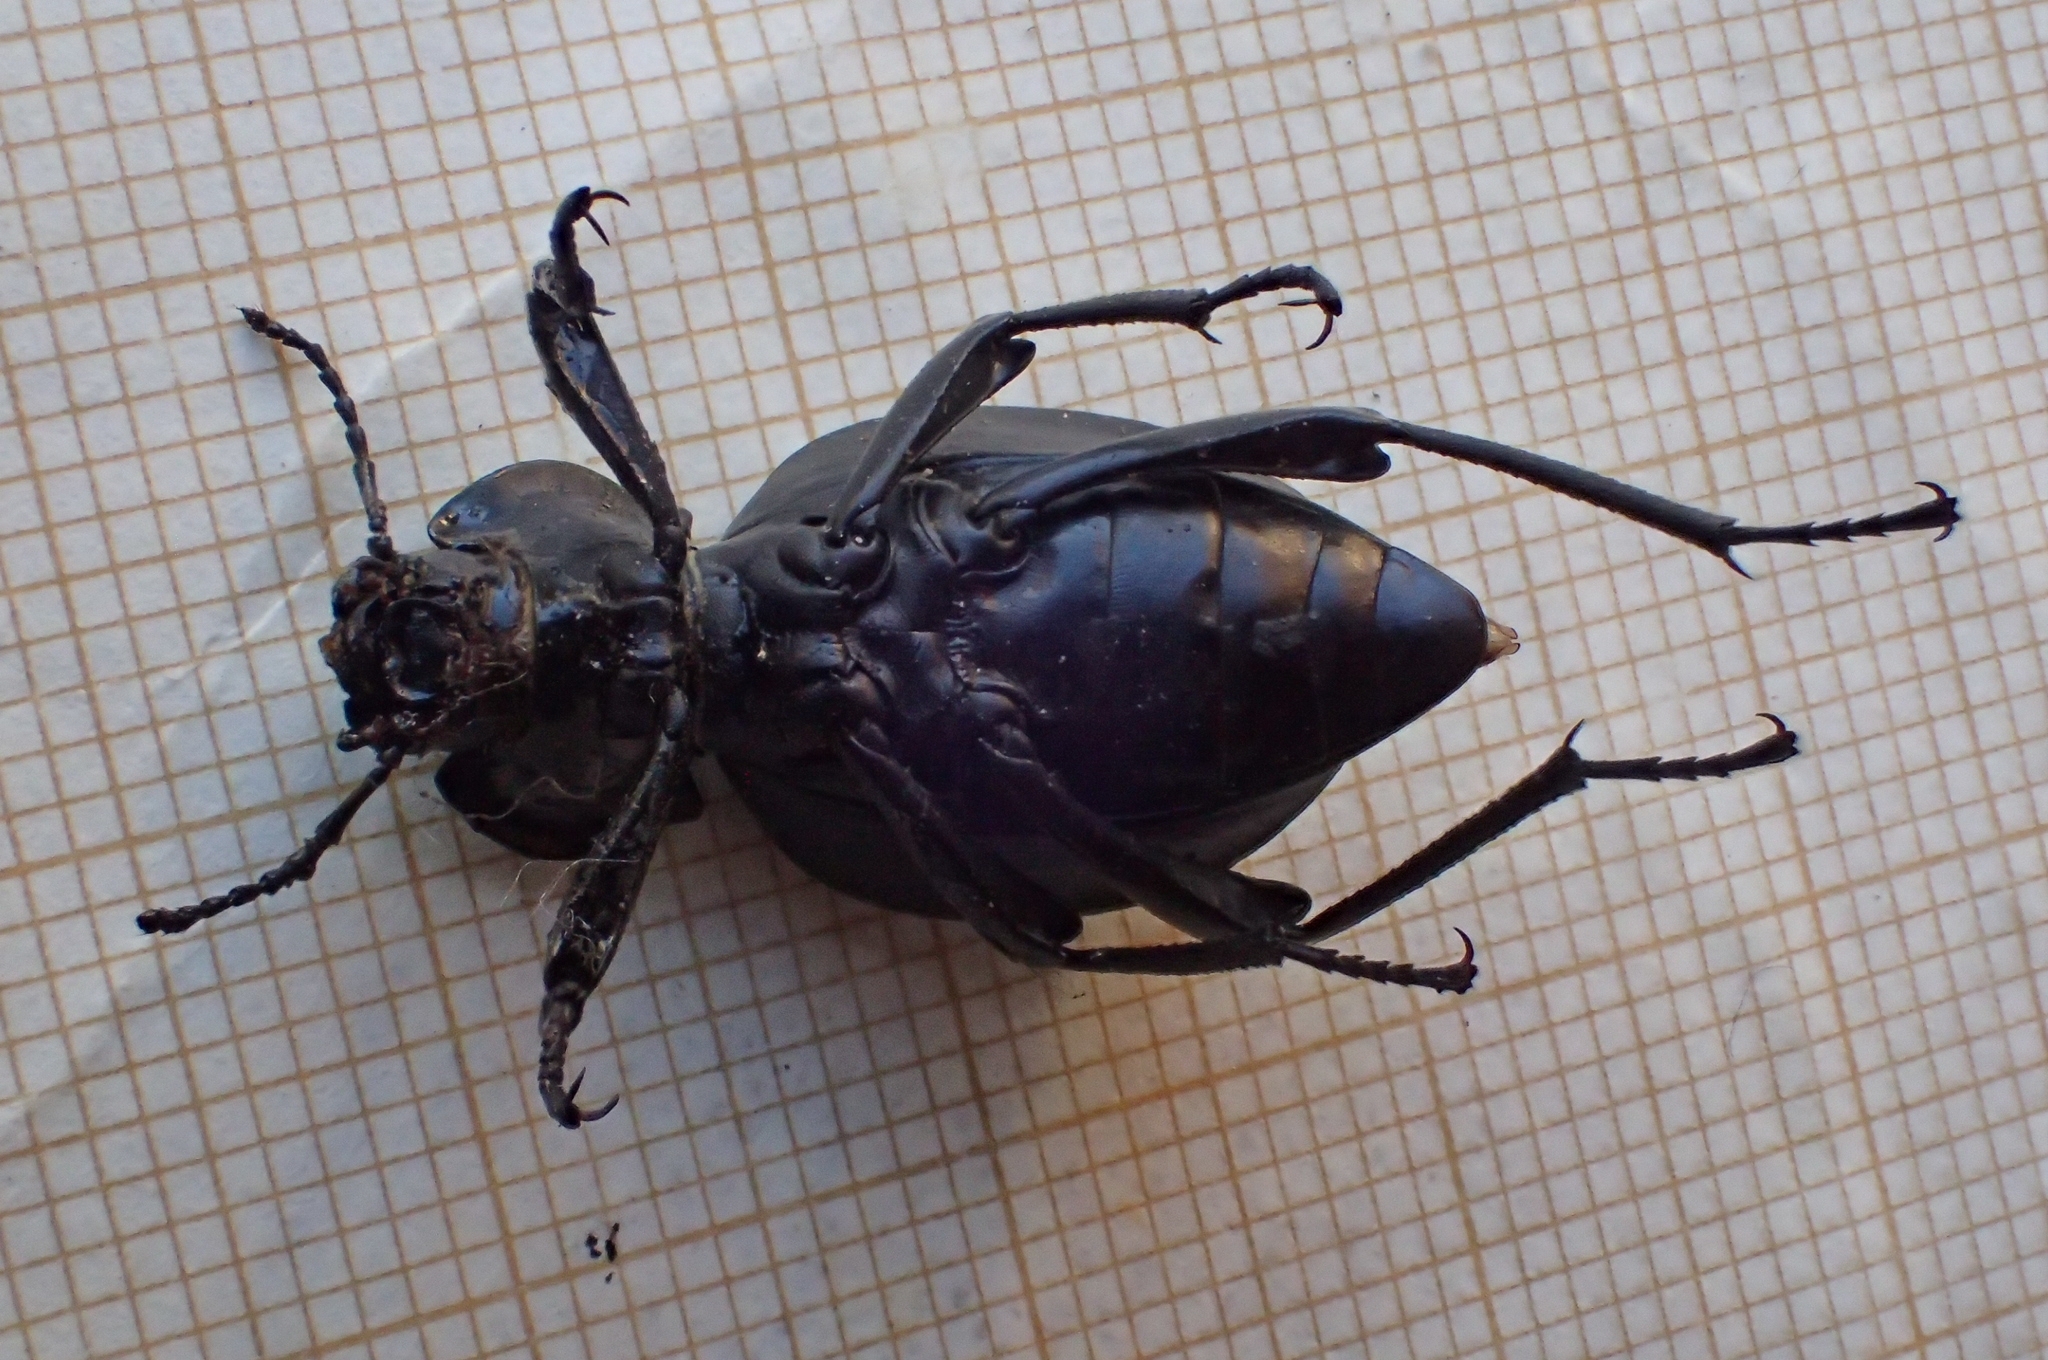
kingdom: Animalia
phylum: Arthropoda
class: Insecta
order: Coleoptera
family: Tenebrionidae
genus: Akis
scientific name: Akis
